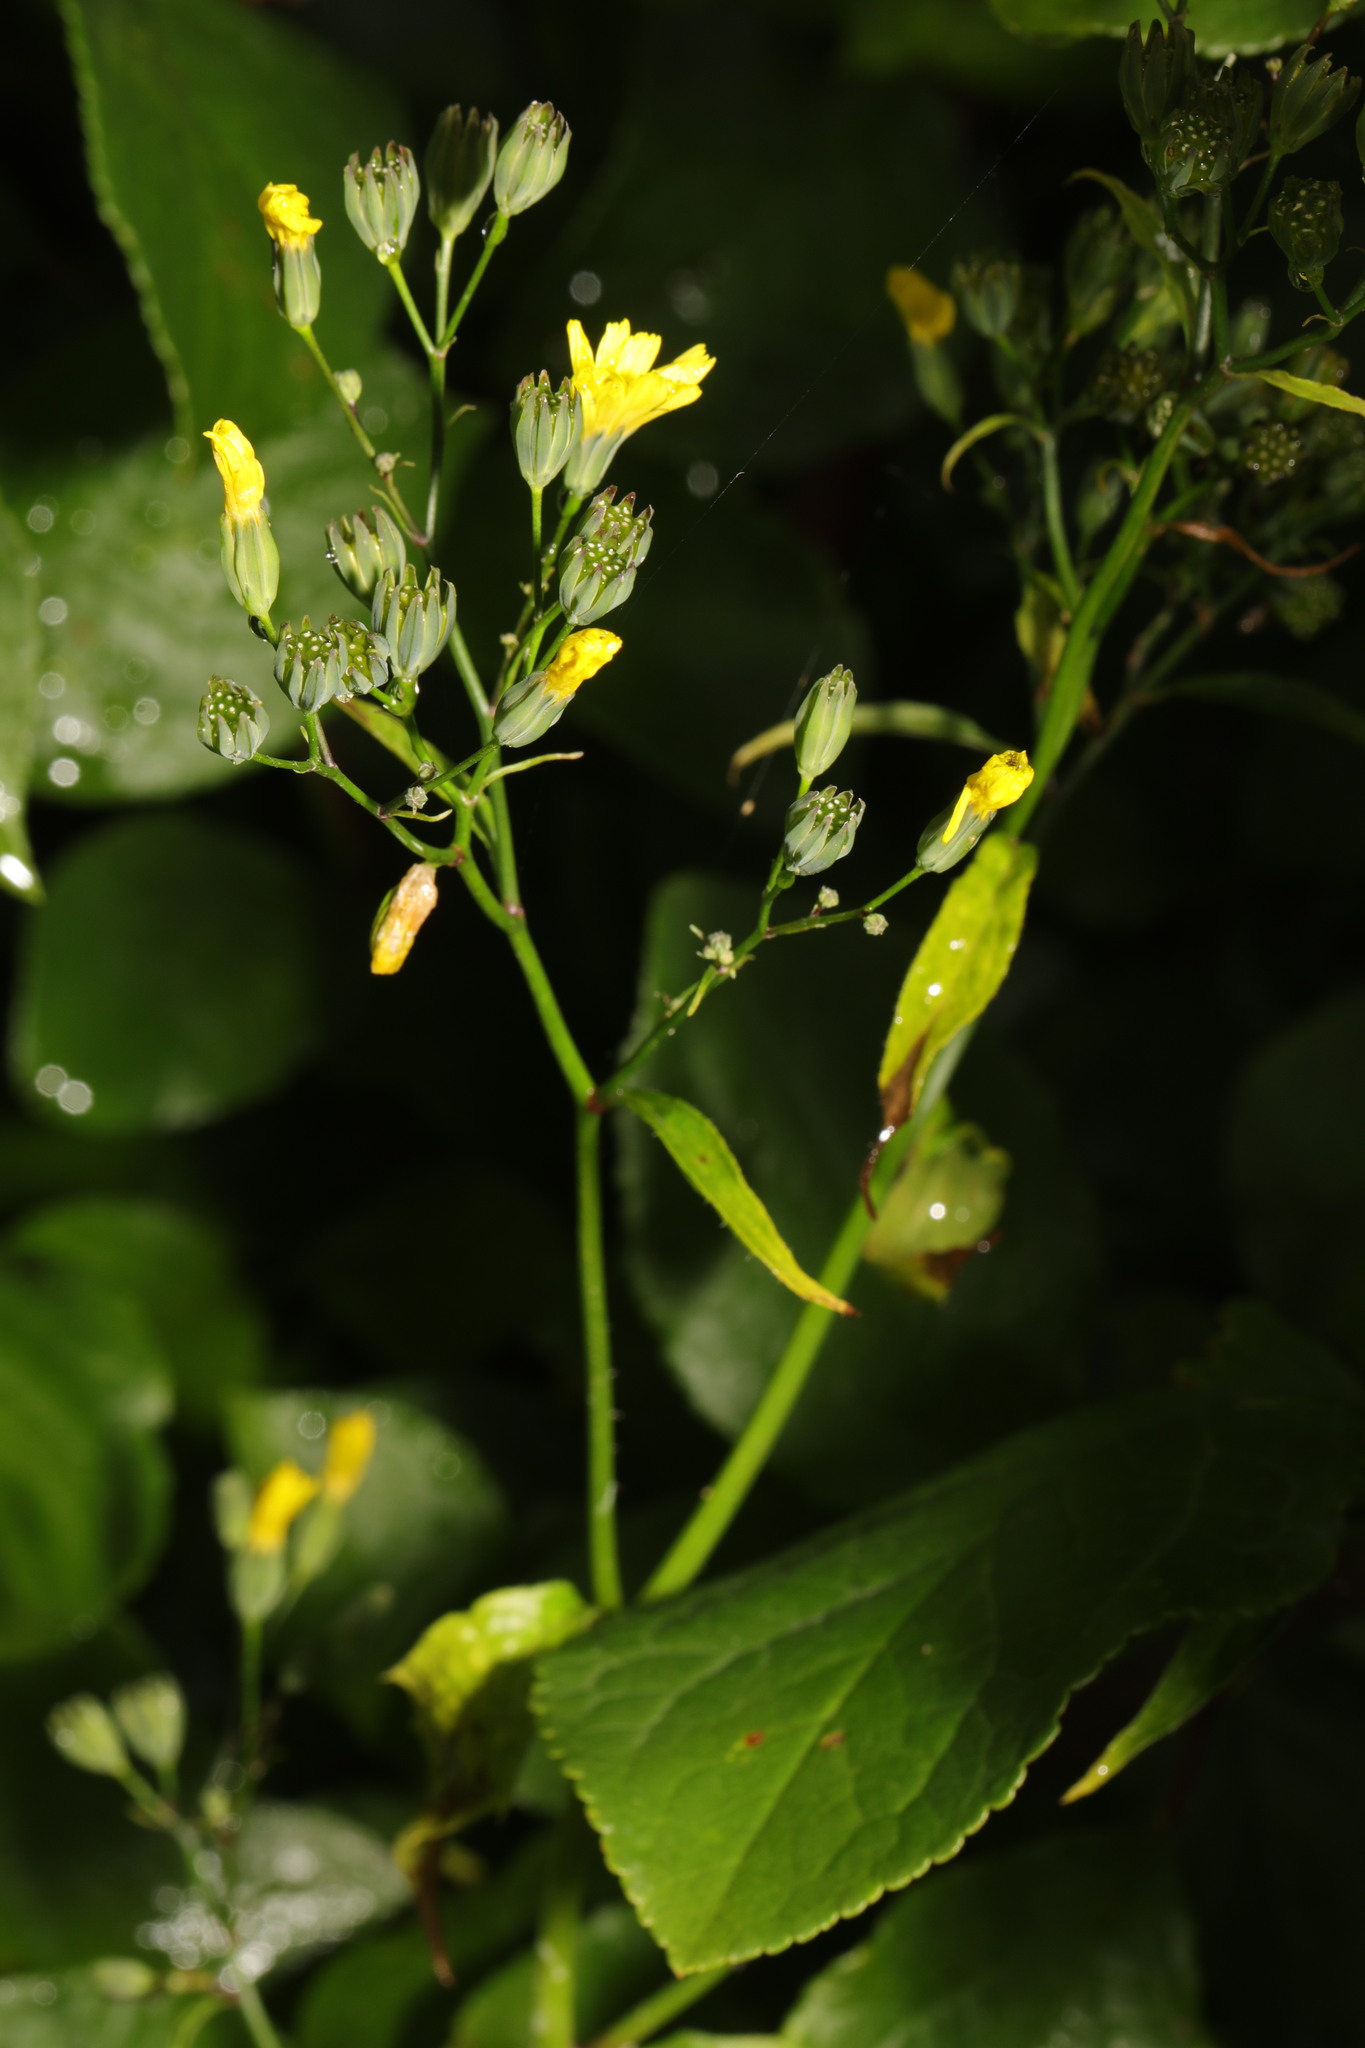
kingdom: Plantae
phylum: Tracheophyta
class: Magnoliopsida
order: Asterales
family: Asteraceae
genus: Lapsana
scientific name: Lapsana communis
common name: Nipplewort
